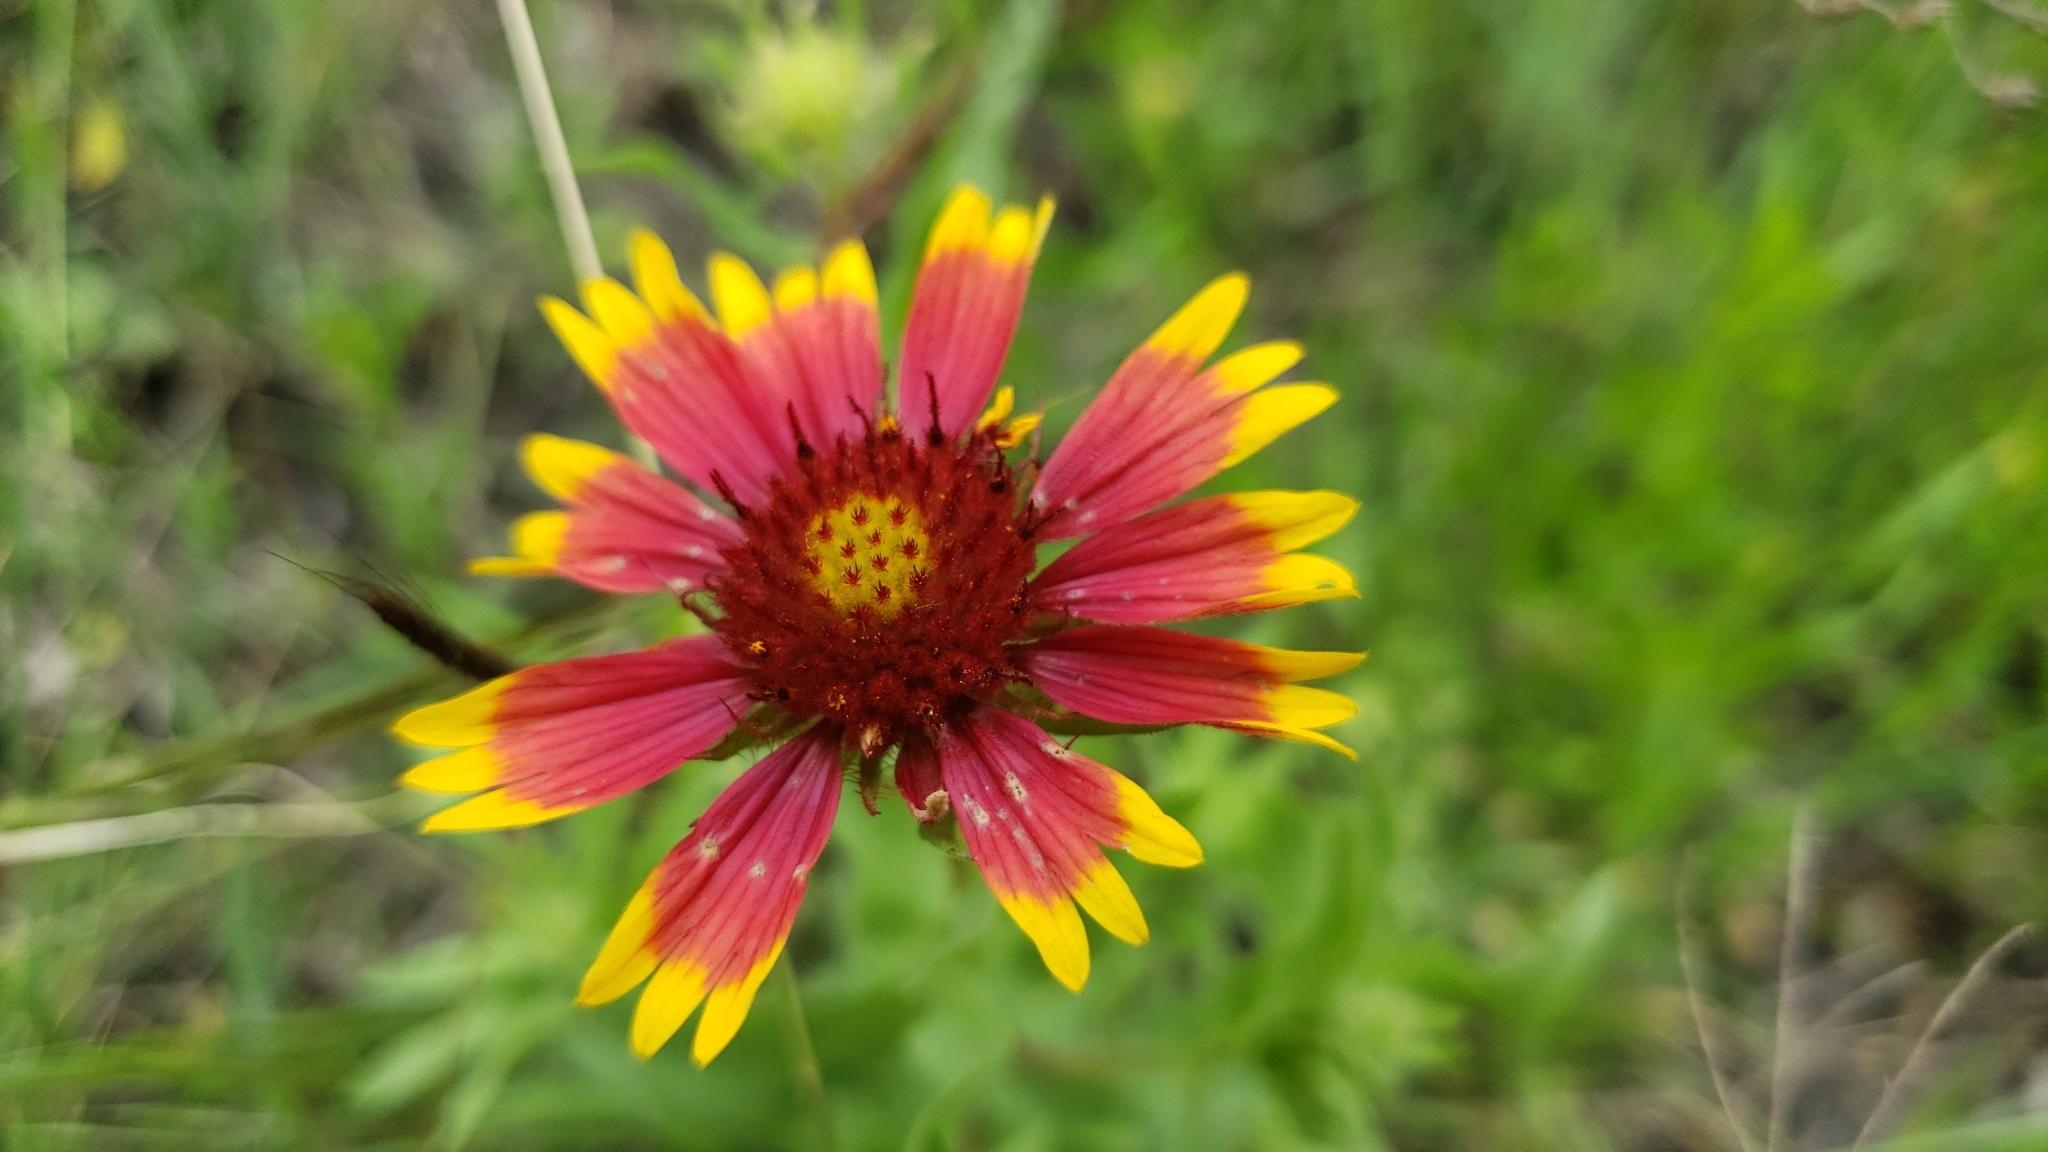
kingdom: Plantae
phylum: Tracheophyta
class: Magnoliopsida
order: Asterales
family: Asteraceae
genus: Gaillardia
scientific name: Gaillardia pulchella
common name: Firewheel
